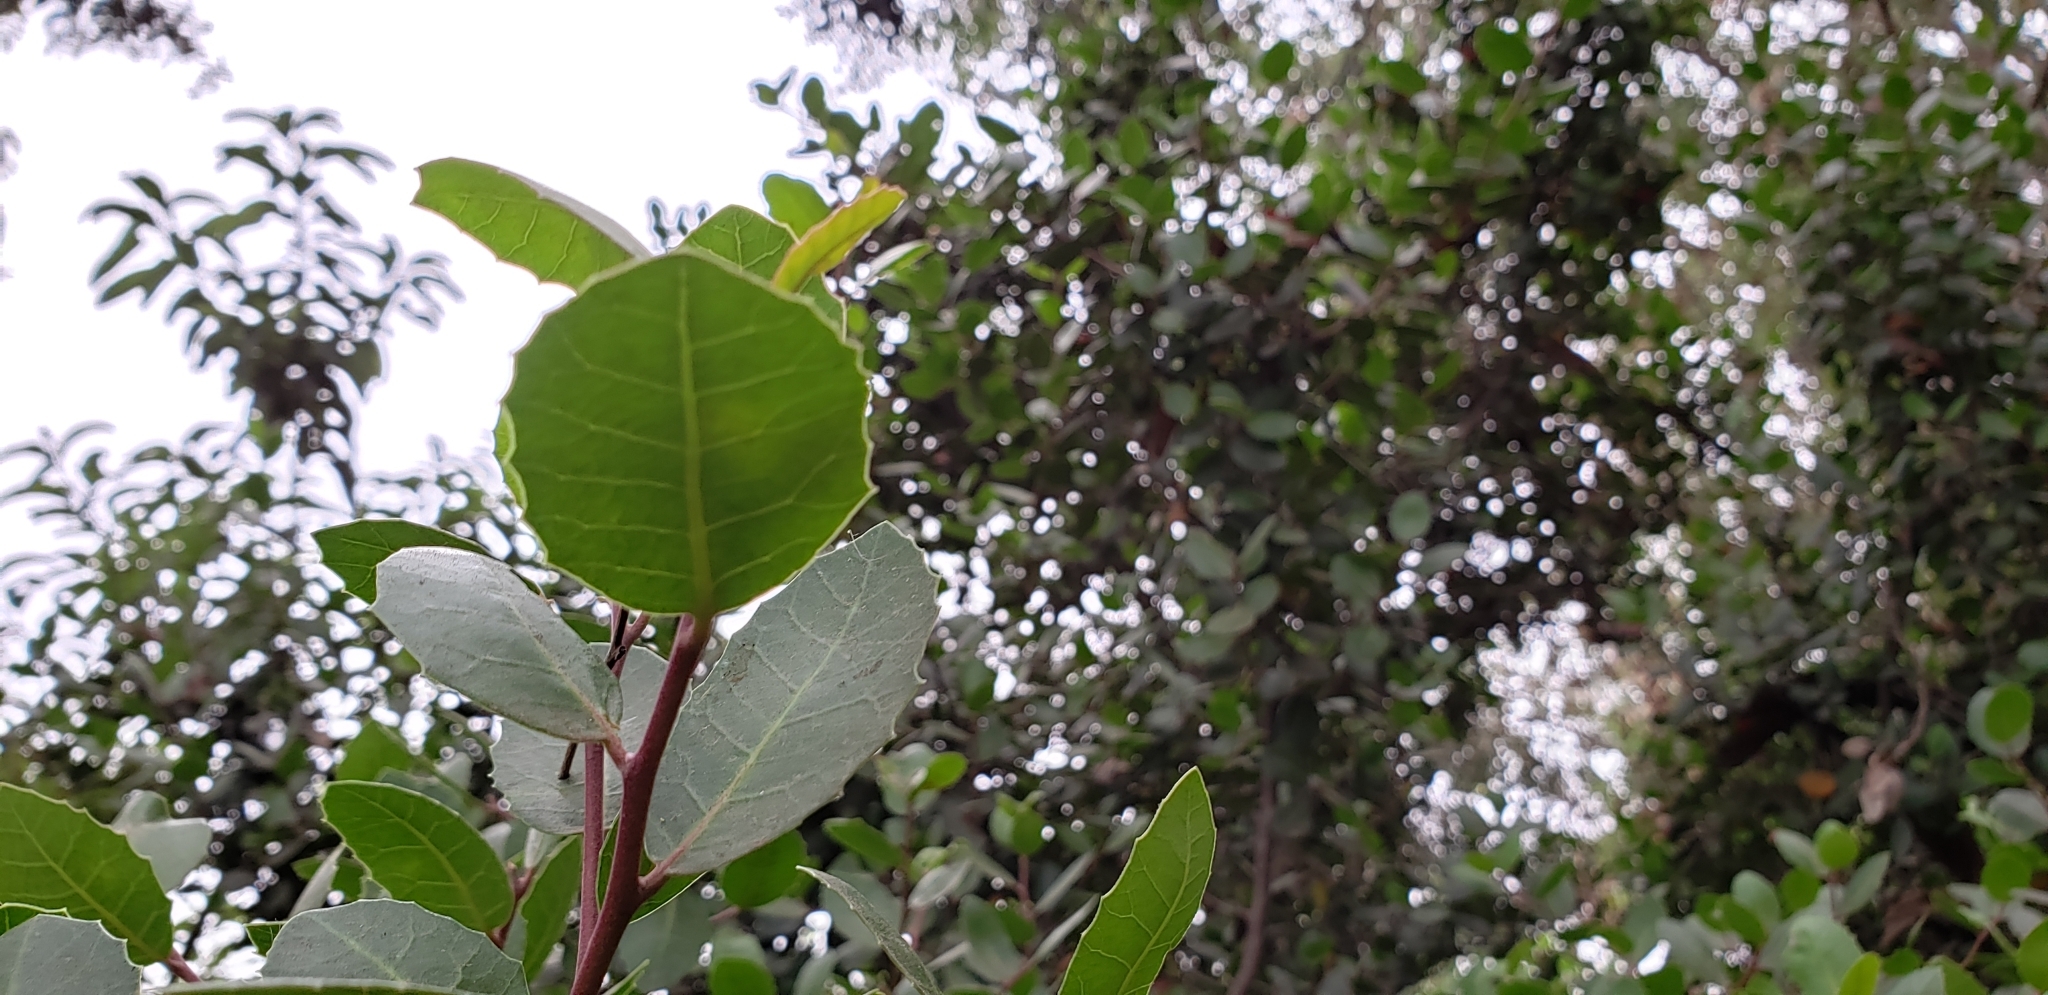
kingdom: Plantae
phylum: Tracheophyta
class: Magnoliopsida
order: Sapindales
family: Anacardiaceae
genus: Rhus
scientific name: Rhus integrifolia
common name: Lemonade sumac
